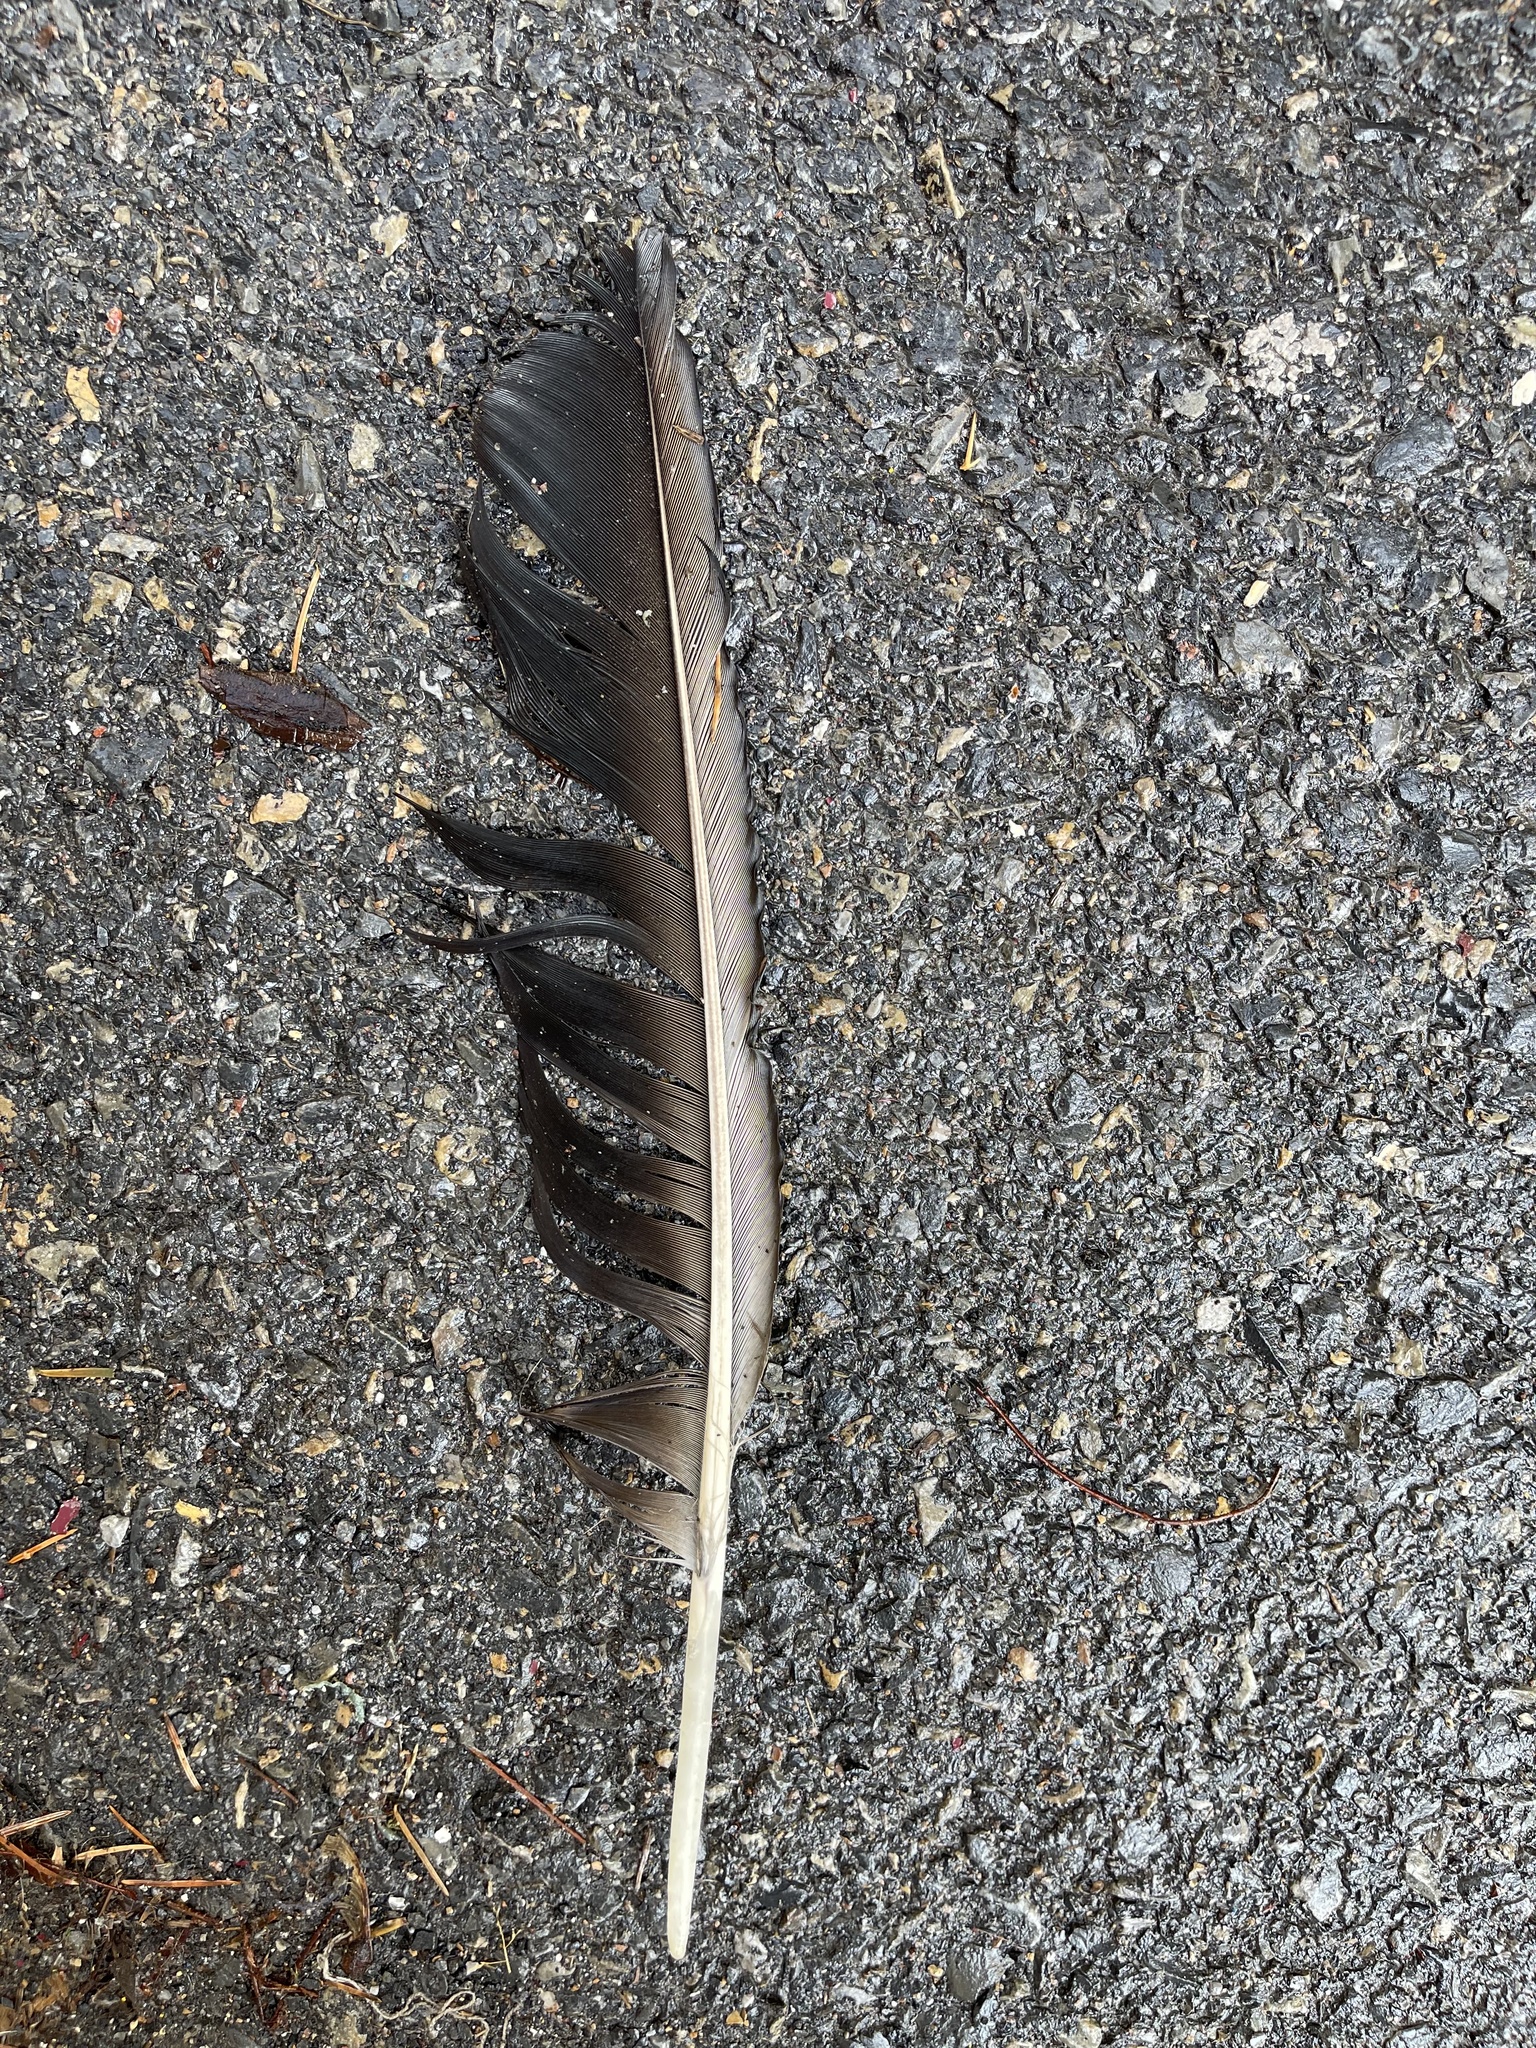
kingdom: Animalia
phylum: Chordata
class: Aves
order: Accipitriformes
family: Cathartidae
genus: Coragyps
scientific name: Coragyps atratus
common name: Black vulture
